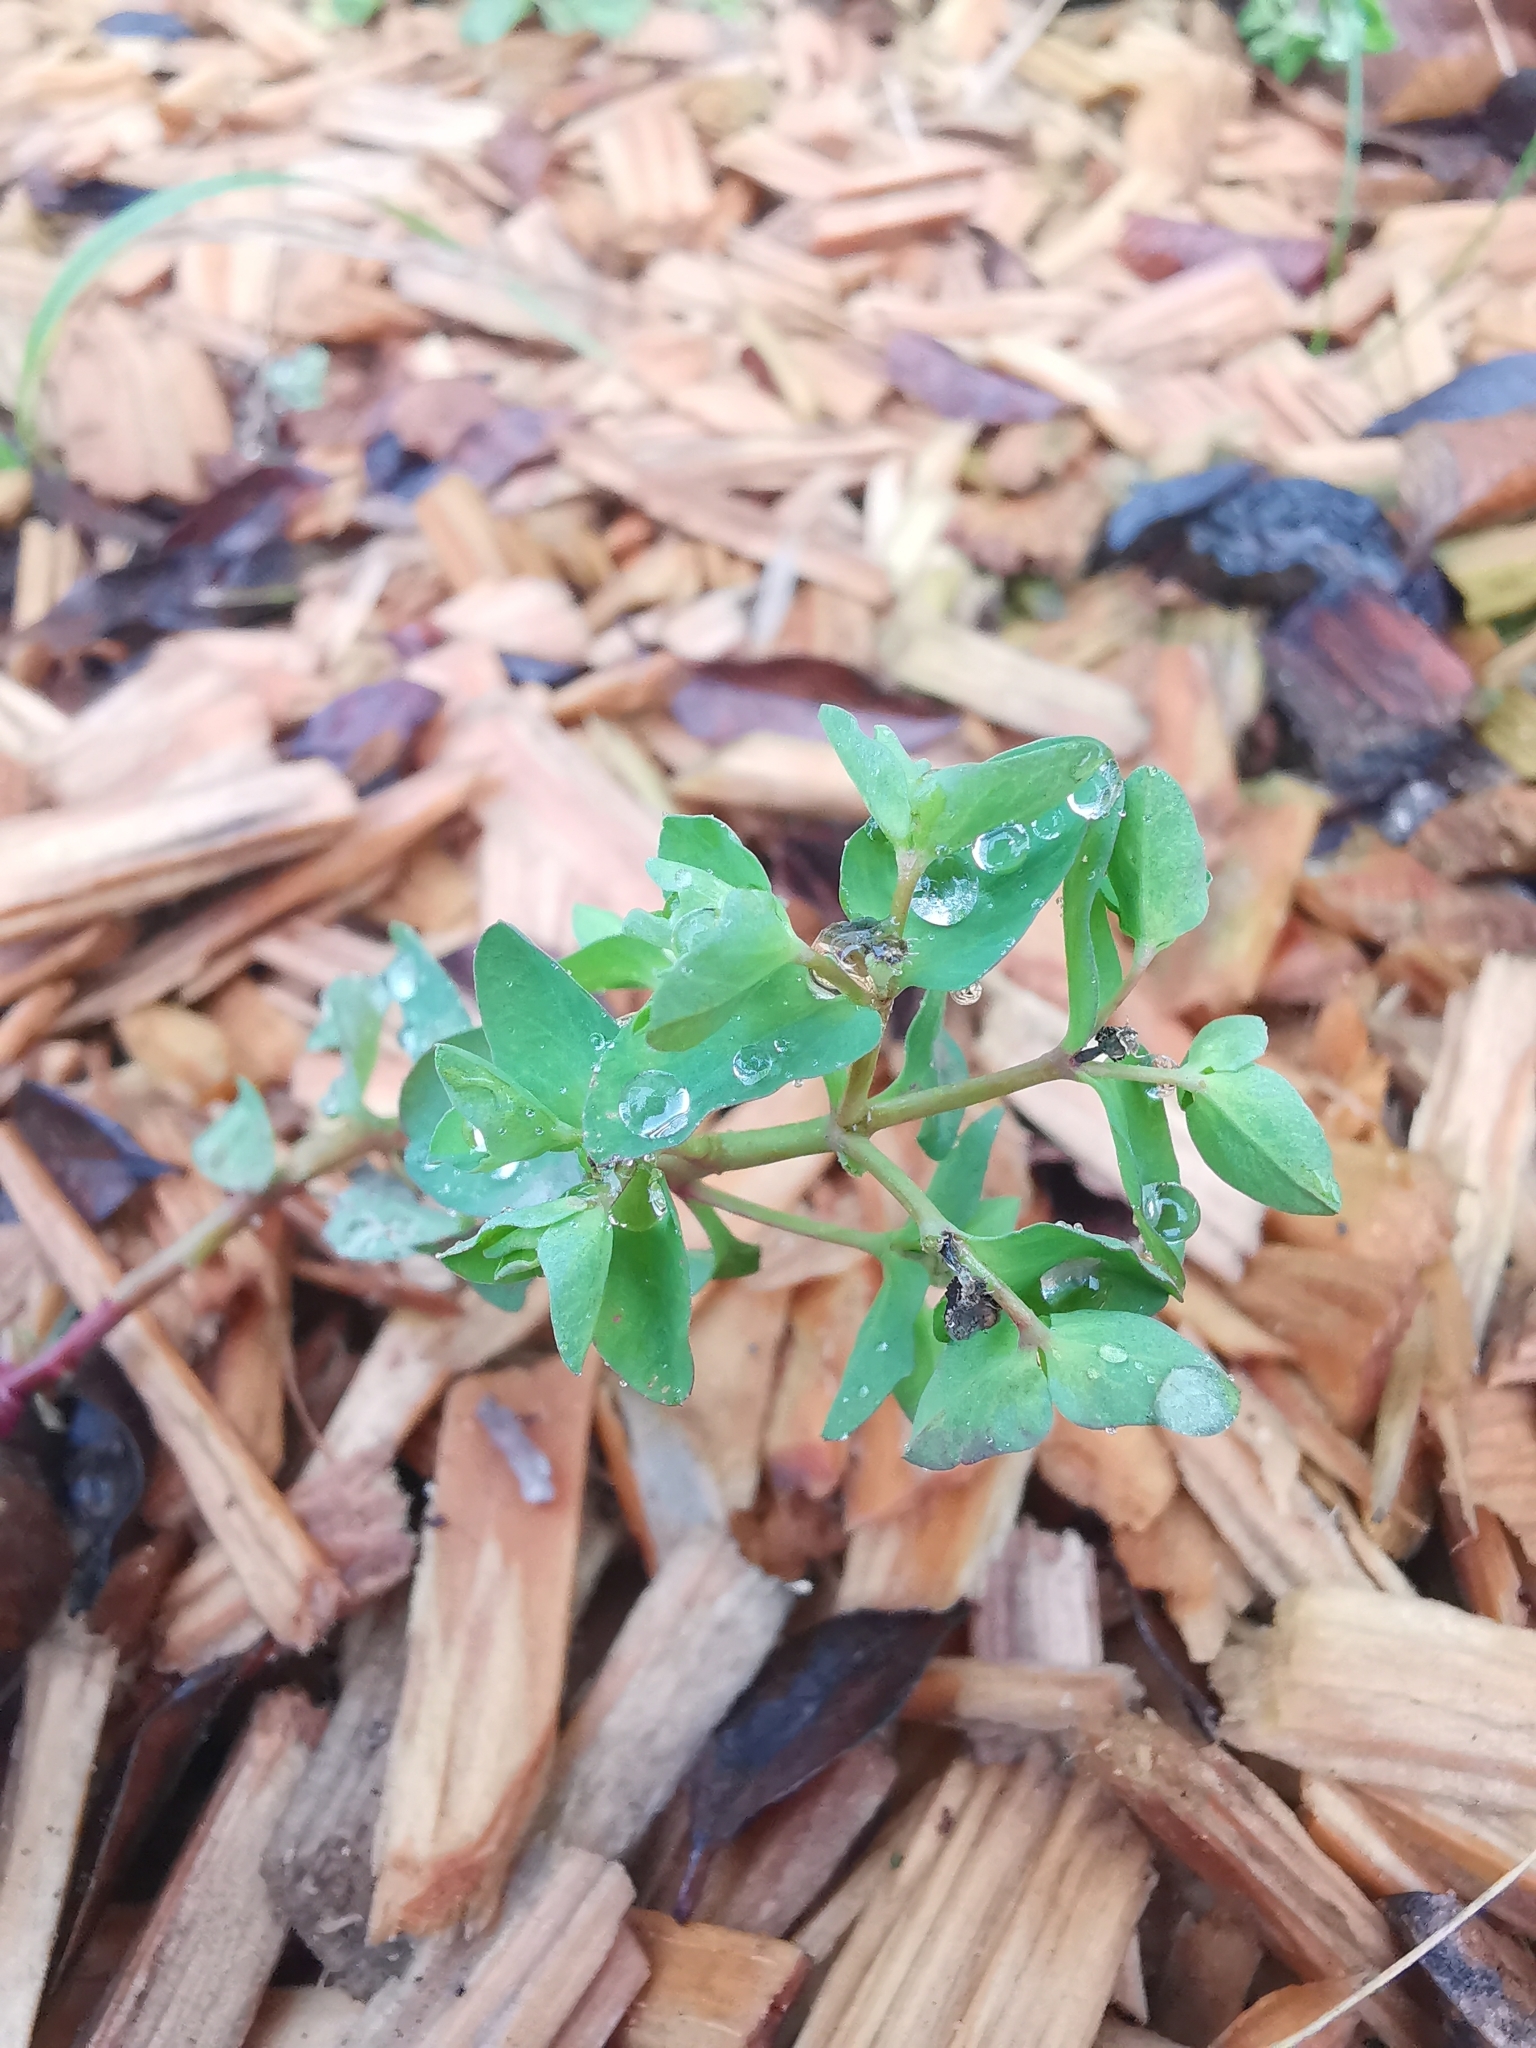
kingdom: Plantae
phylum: Tracheophyta
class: Magnoliopsida
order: Malpighiales
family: Euphorbiaceae
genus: Euphorbia
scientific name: Euphorbia peplus
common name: Petty spurge
